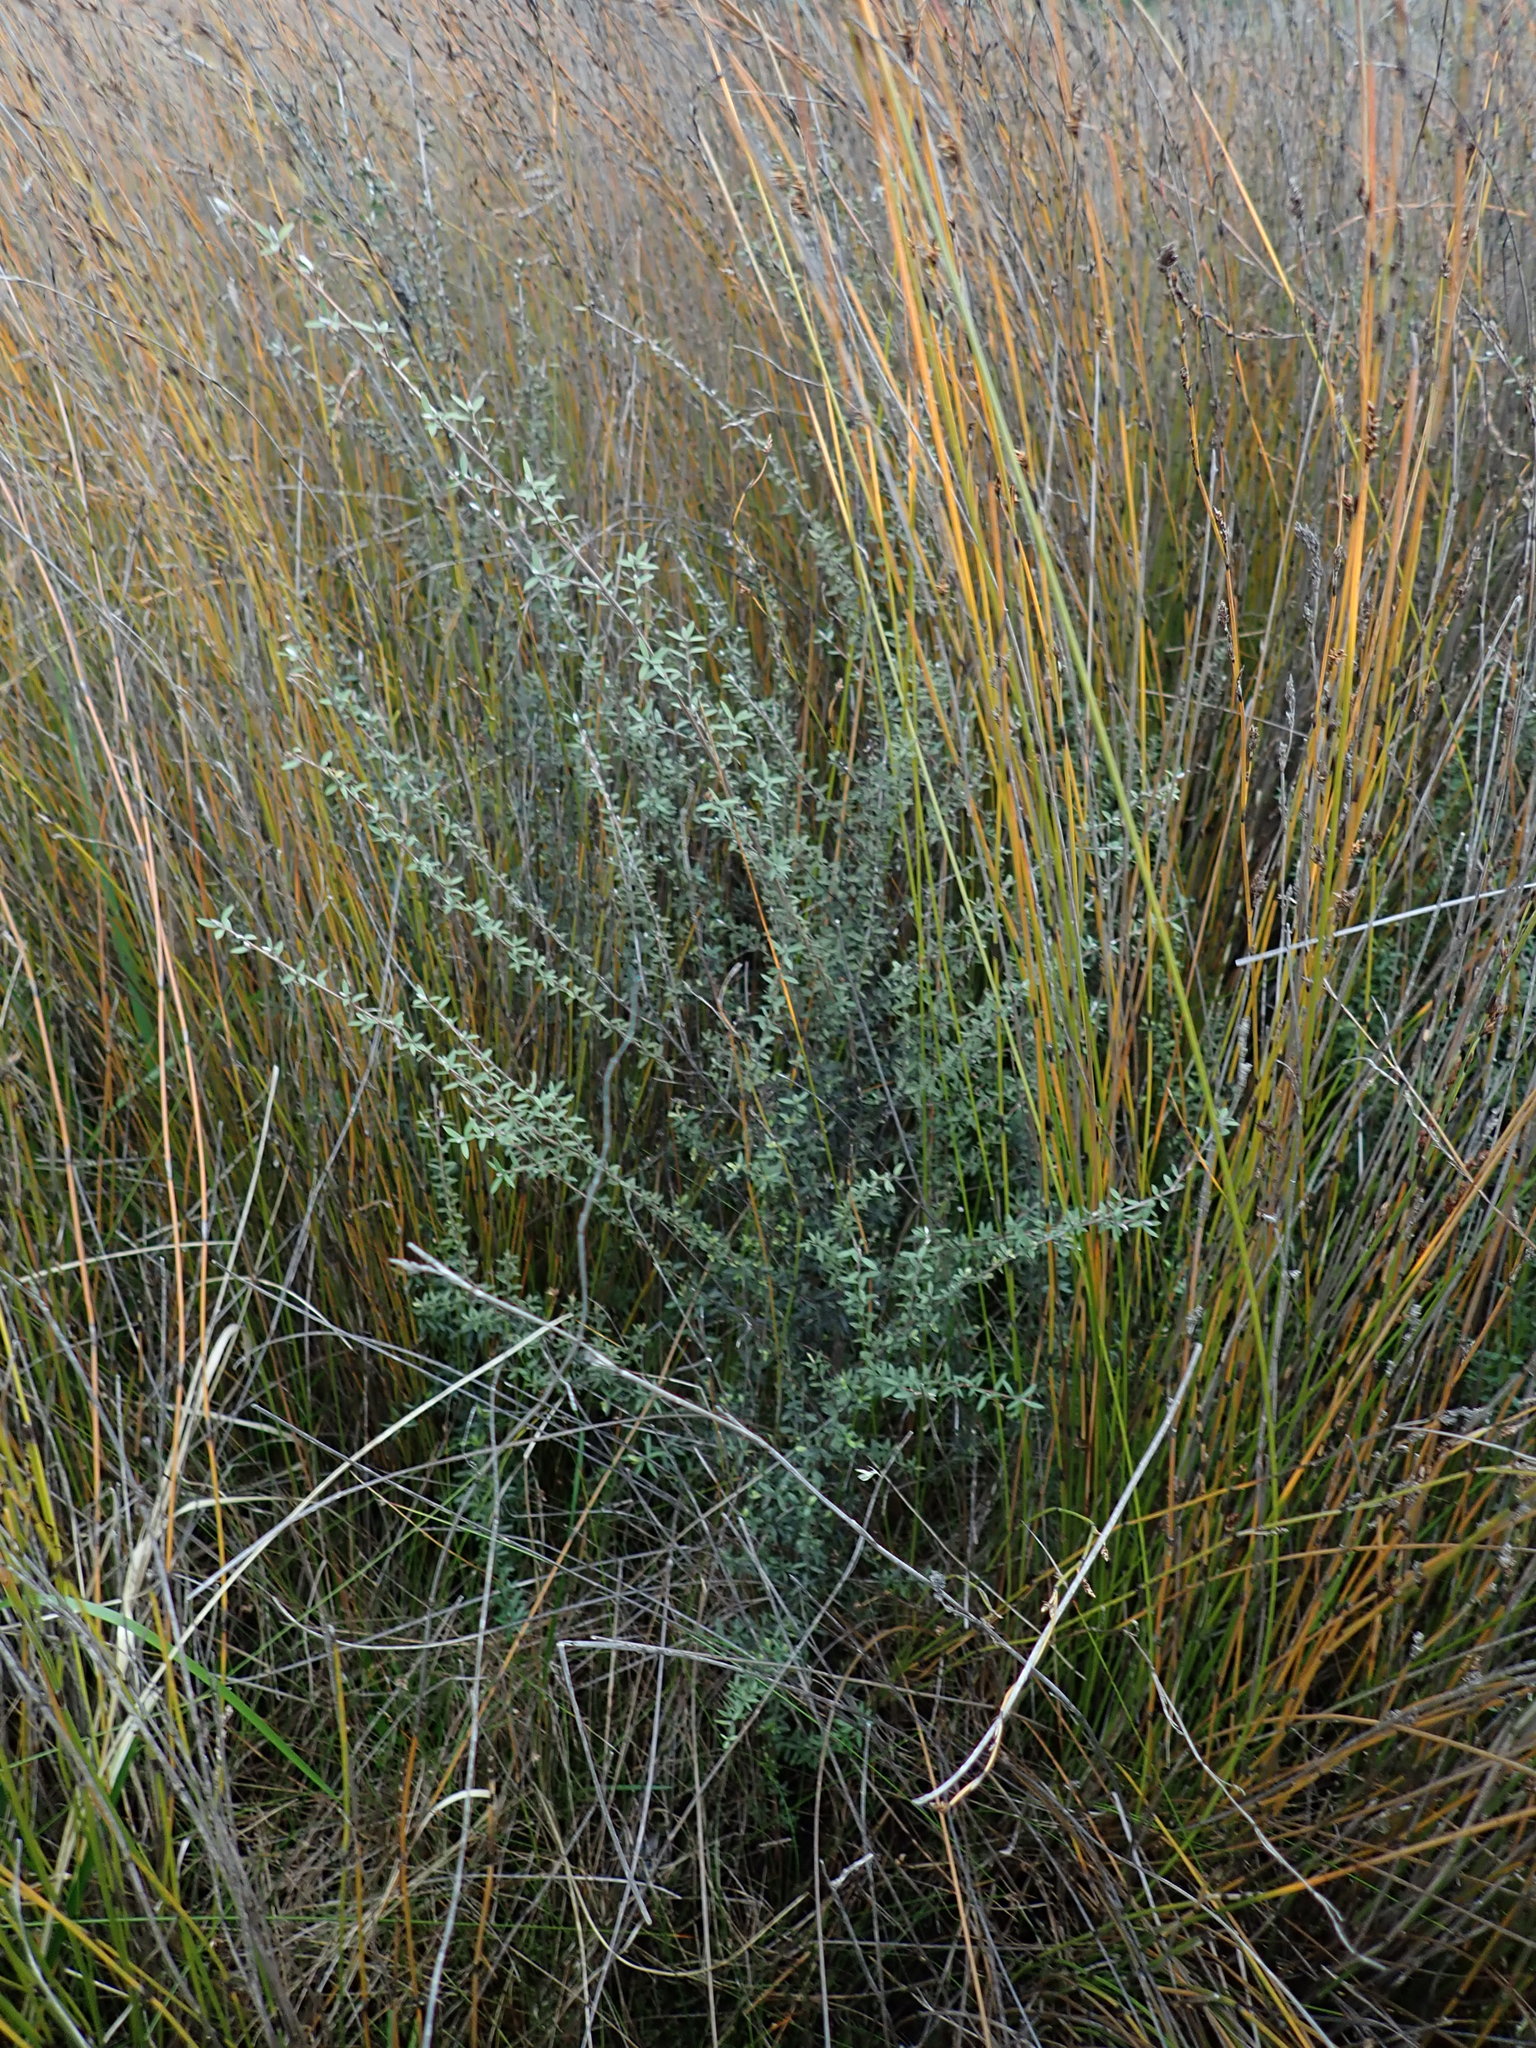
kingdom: Plantae
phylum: Tracheophyta
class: Magnoliopsida
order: Myrtales
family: Myrtaceae
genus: Leptospermum
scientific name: Leptospermum scoparium
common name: Broom tea-tree
